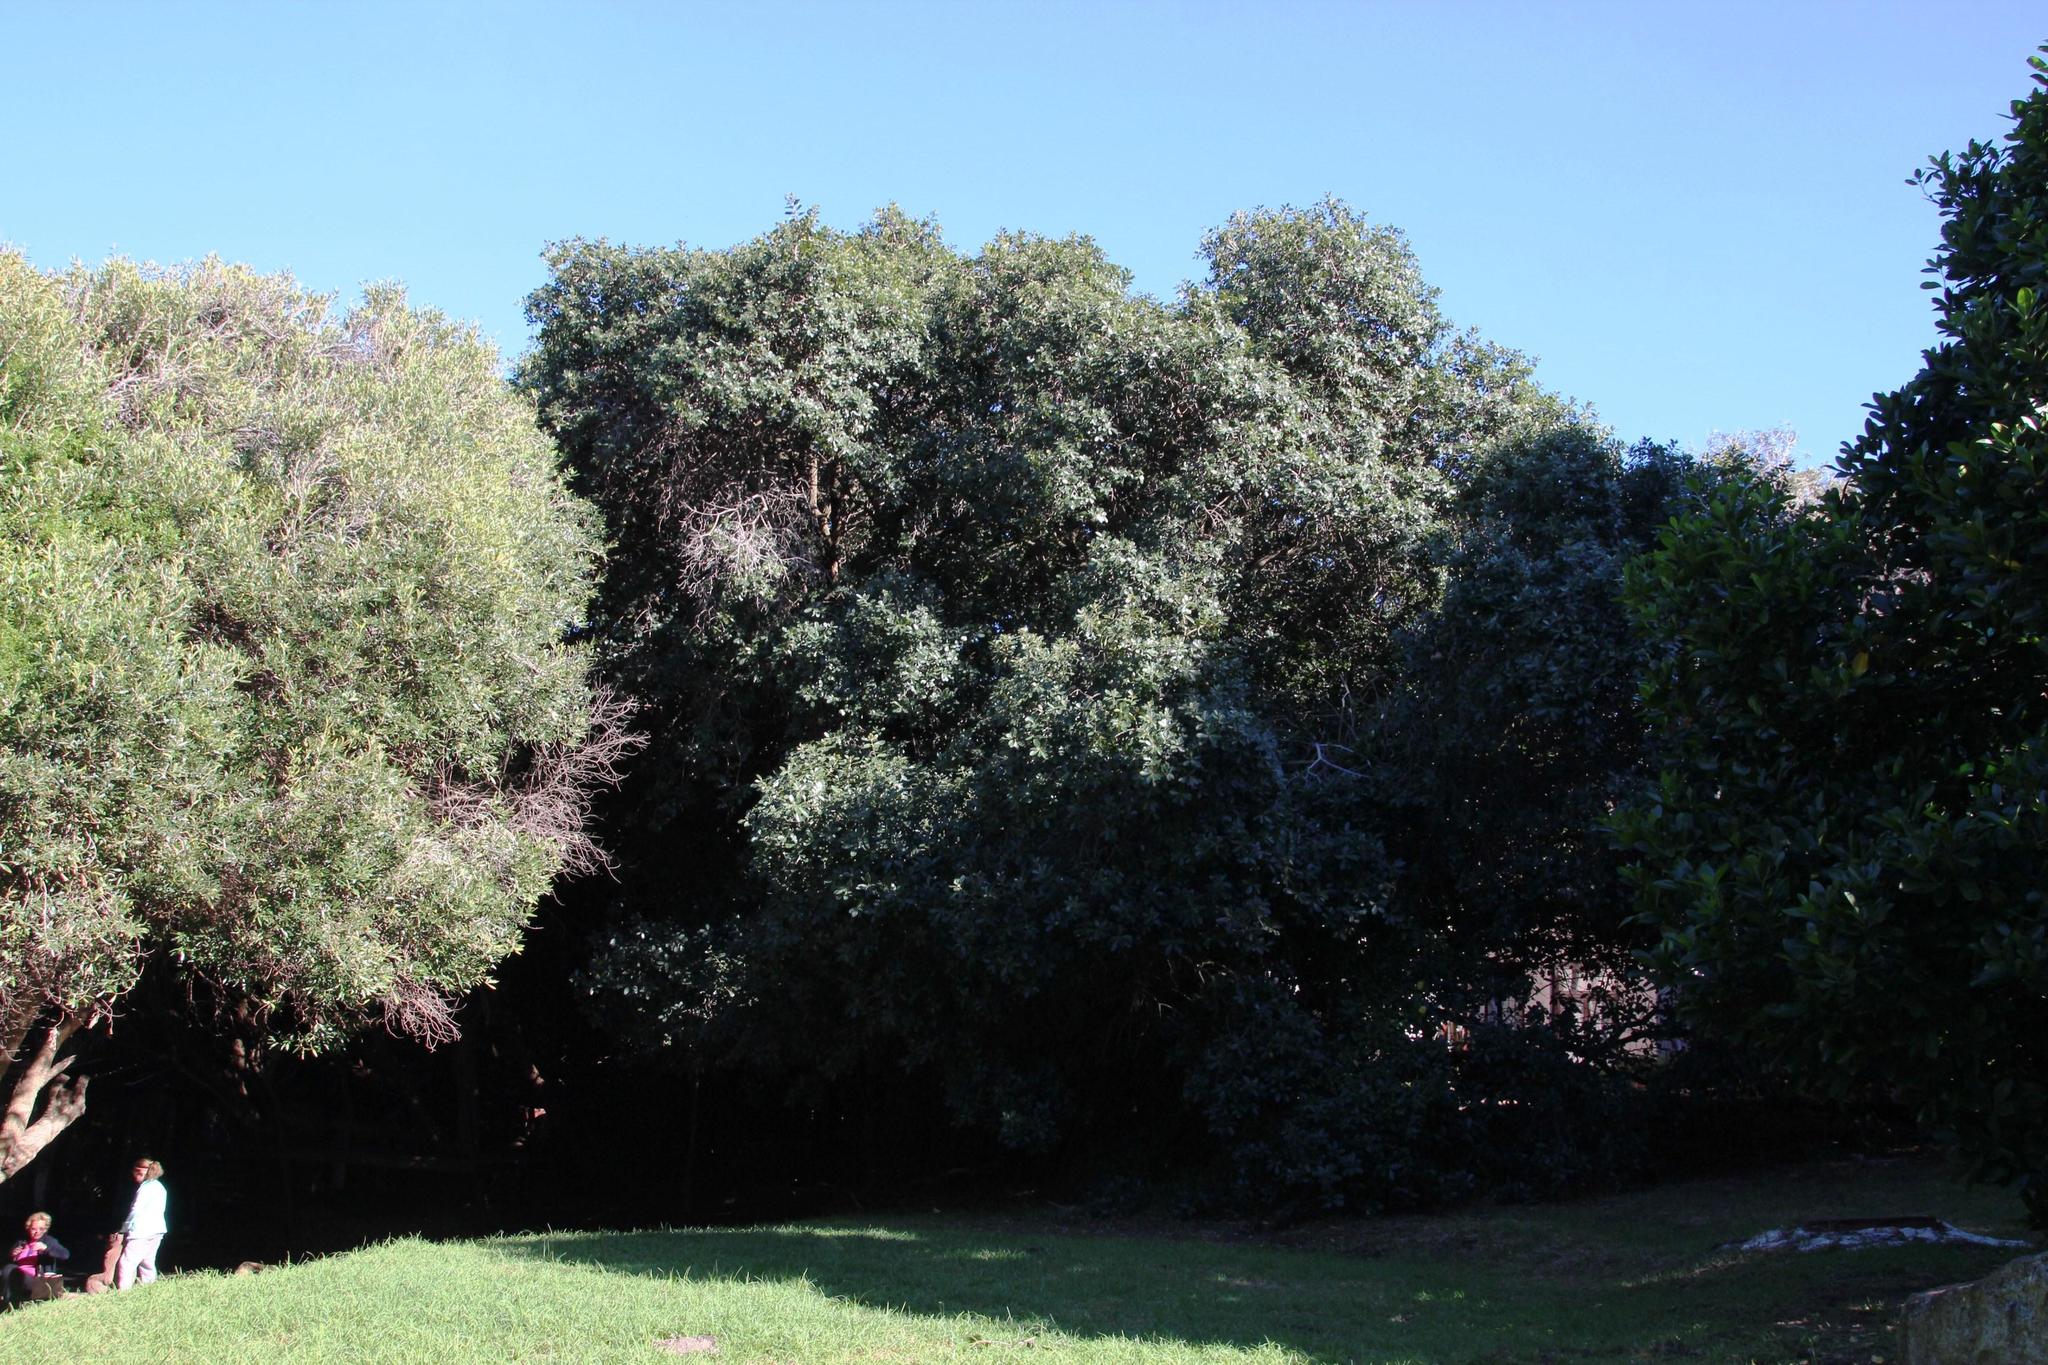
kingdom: Plantae
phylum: Tracheophyta
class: Magnoliopsida
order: Ericales
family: Sapotaceae
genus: Sideroxylon
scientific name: Sideroxylon inerme
